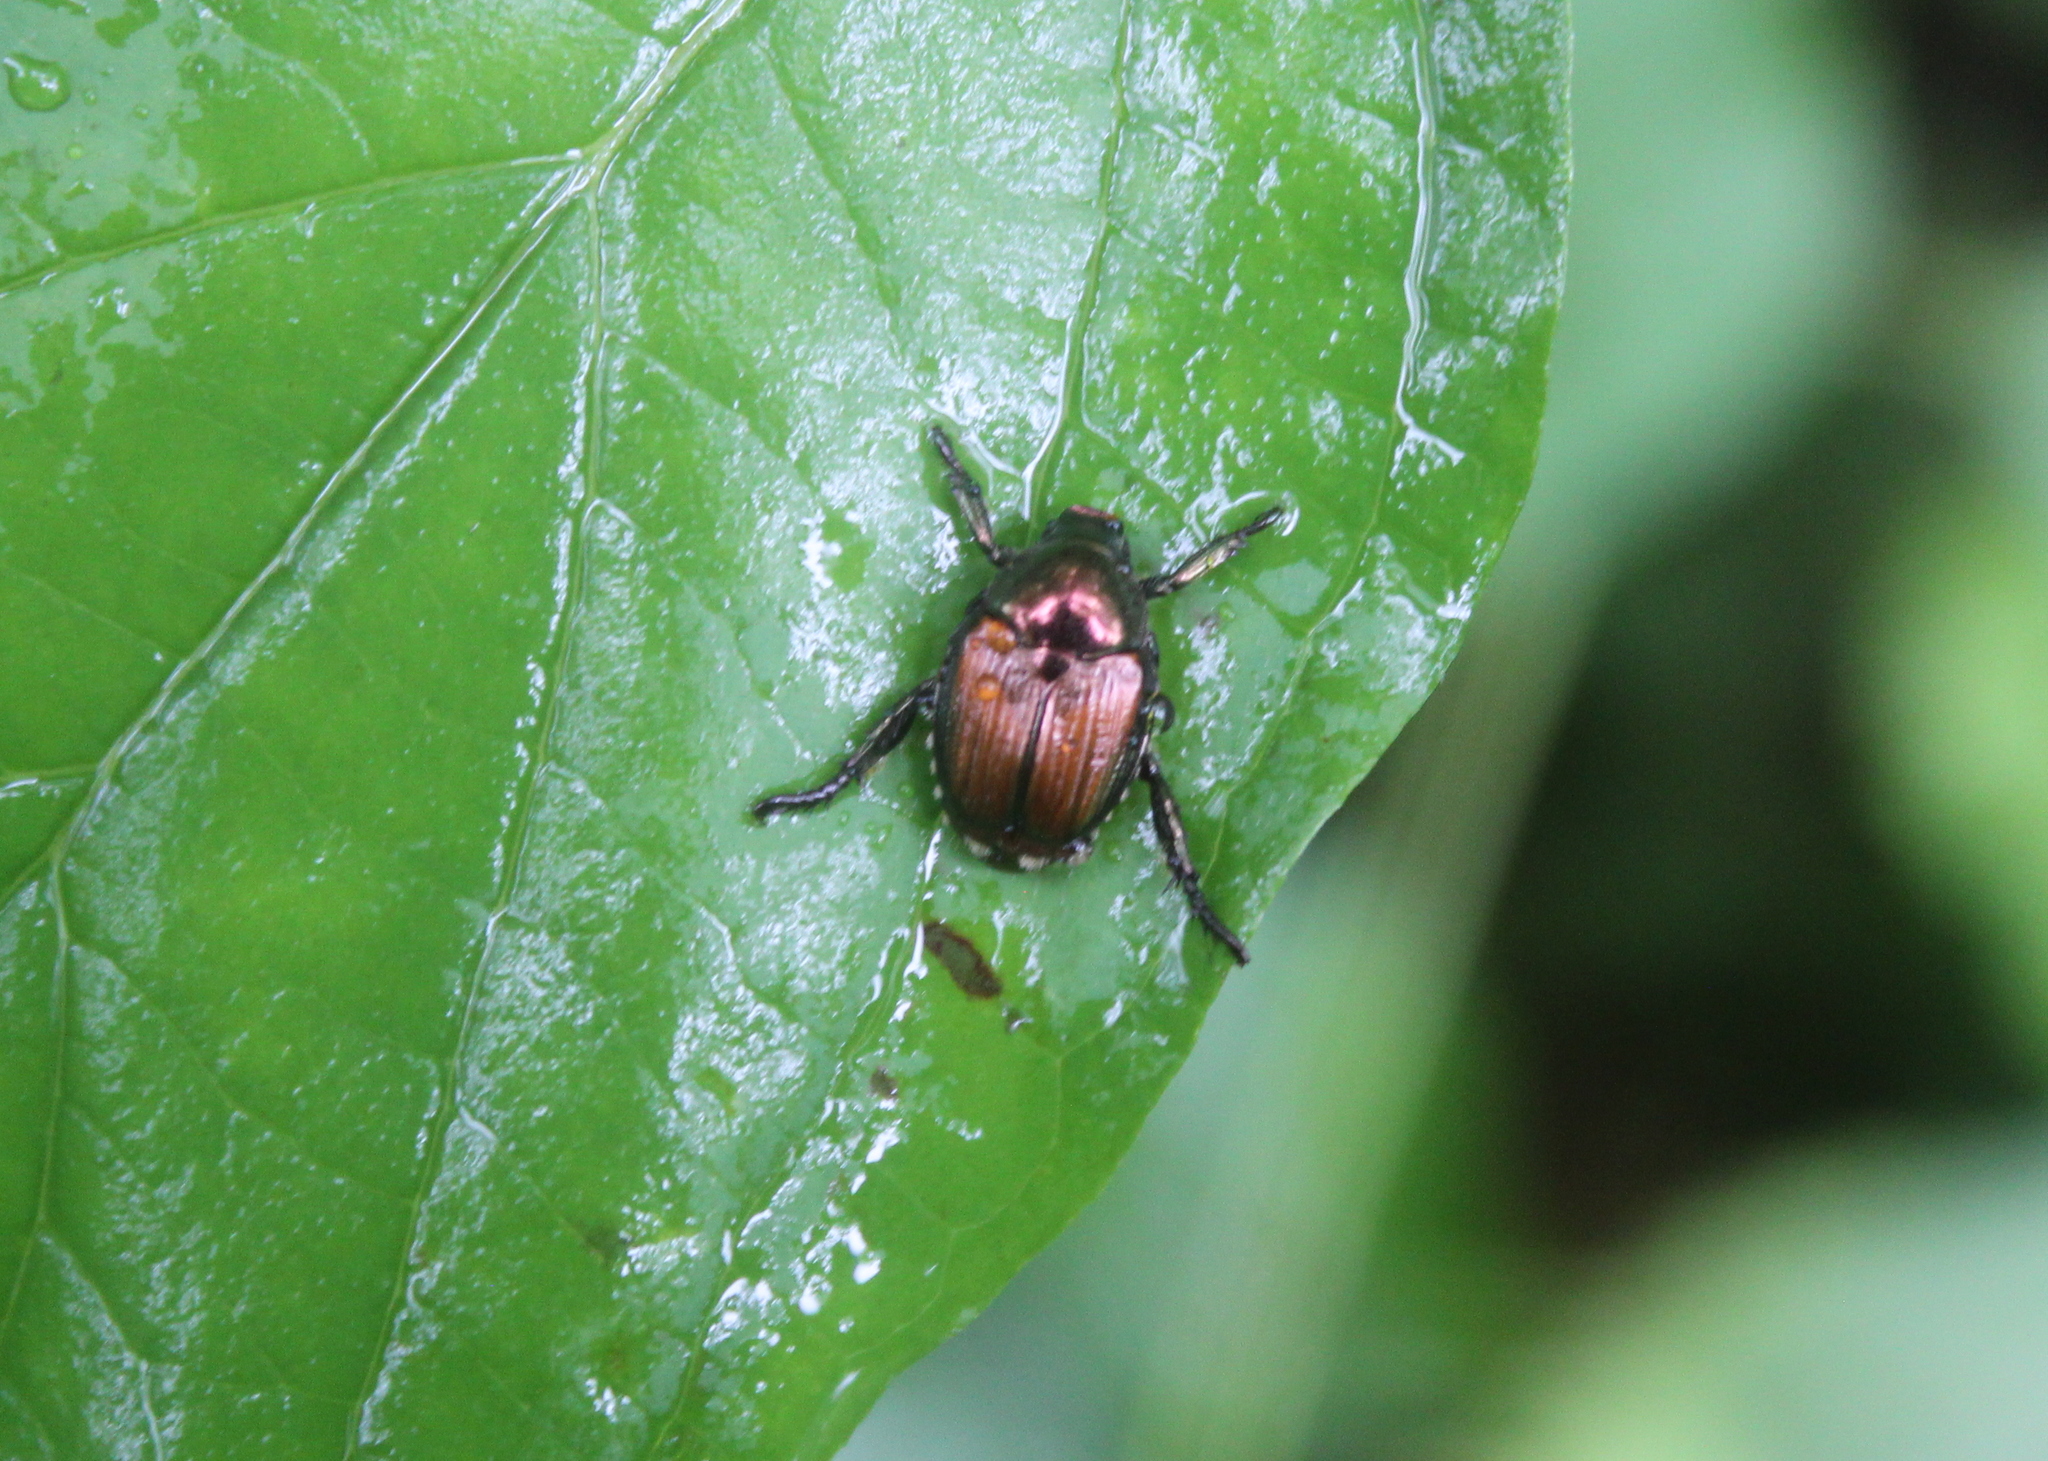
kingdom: Animalia
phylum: Arthropoda
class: Insecta
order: Coleoptera
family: Scarabaeidae
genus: Popillia
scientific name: Popillia japonica
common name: Japanese beetle
